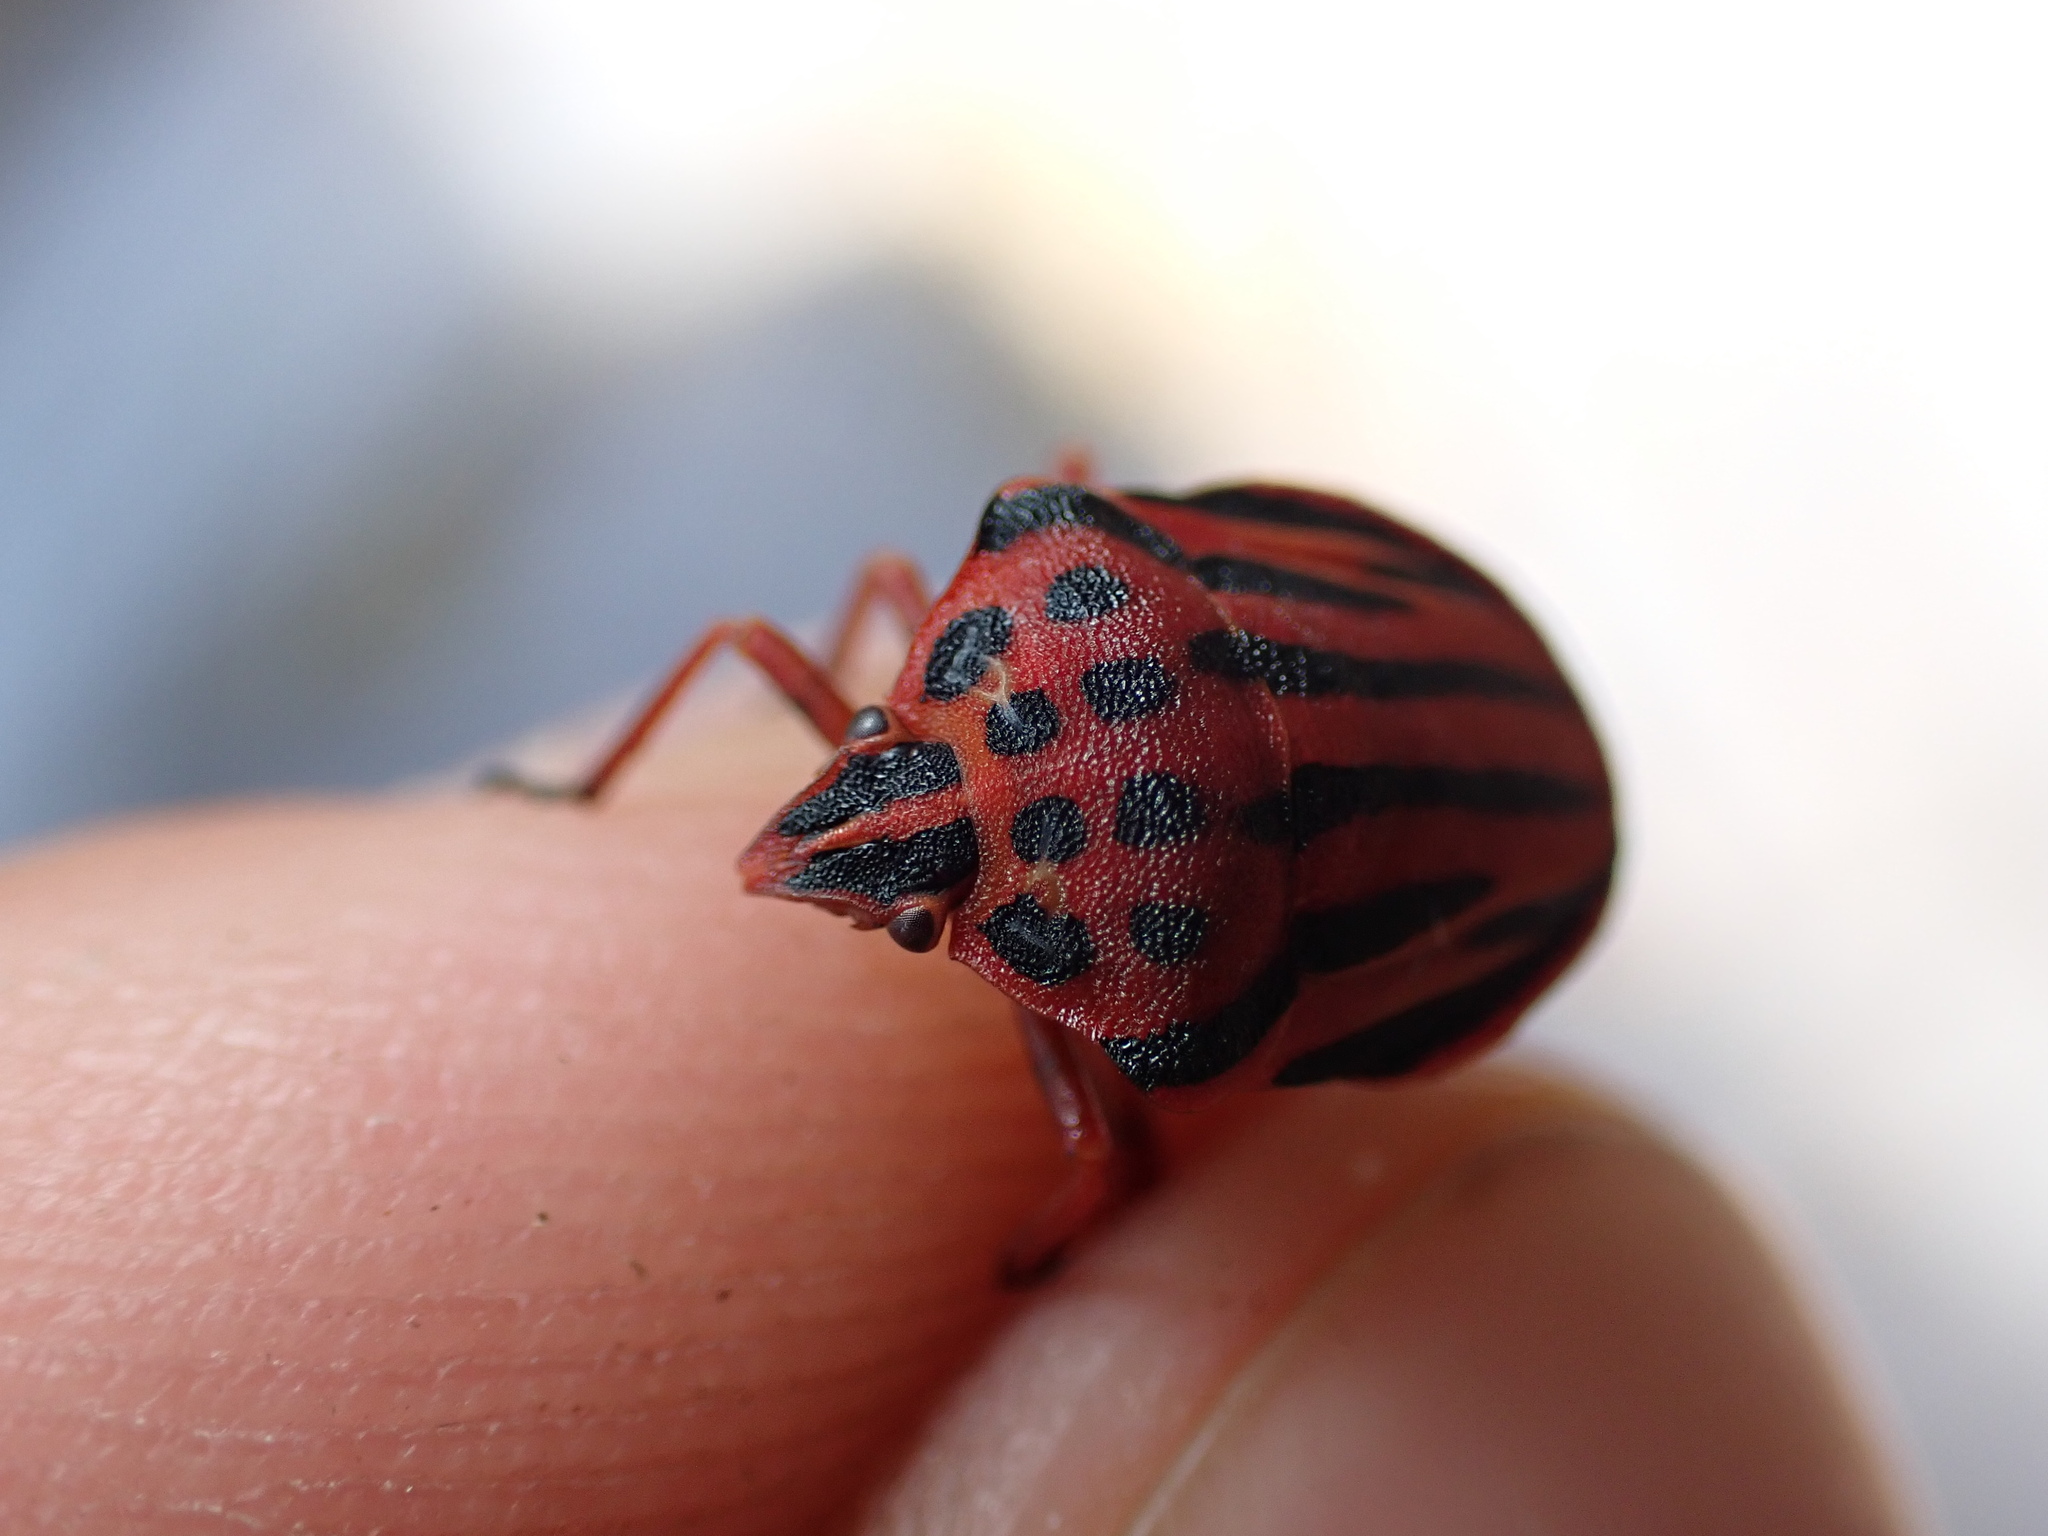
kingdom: Animalia
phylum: Arthropoda
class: Insecta
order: Hemiptera
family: Pentatomidae
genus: Graphosoma
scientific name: Graphosoma semipunctatum
